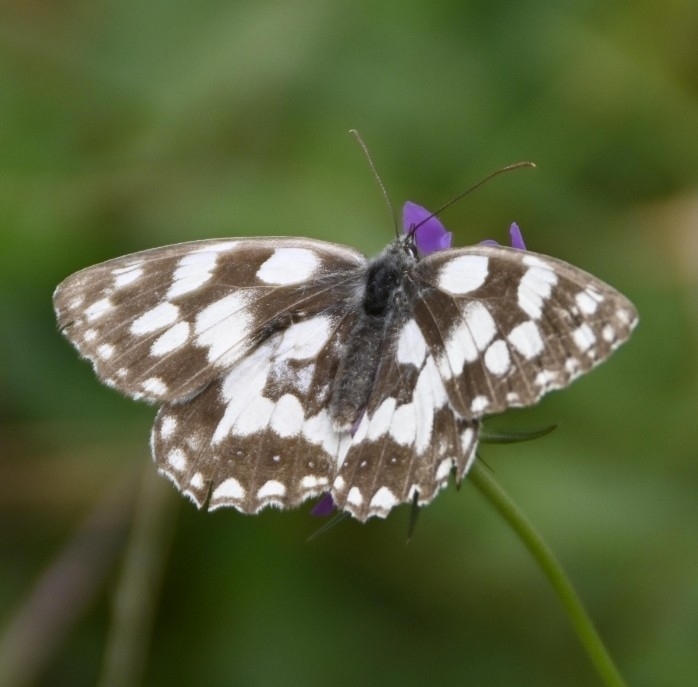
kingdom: Animalia
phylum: Arthropoda
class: Insecta
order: Lepidoptera
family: Nymphalidae
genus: Melanargia
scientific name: Melanargia galathea
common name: Marbled white
